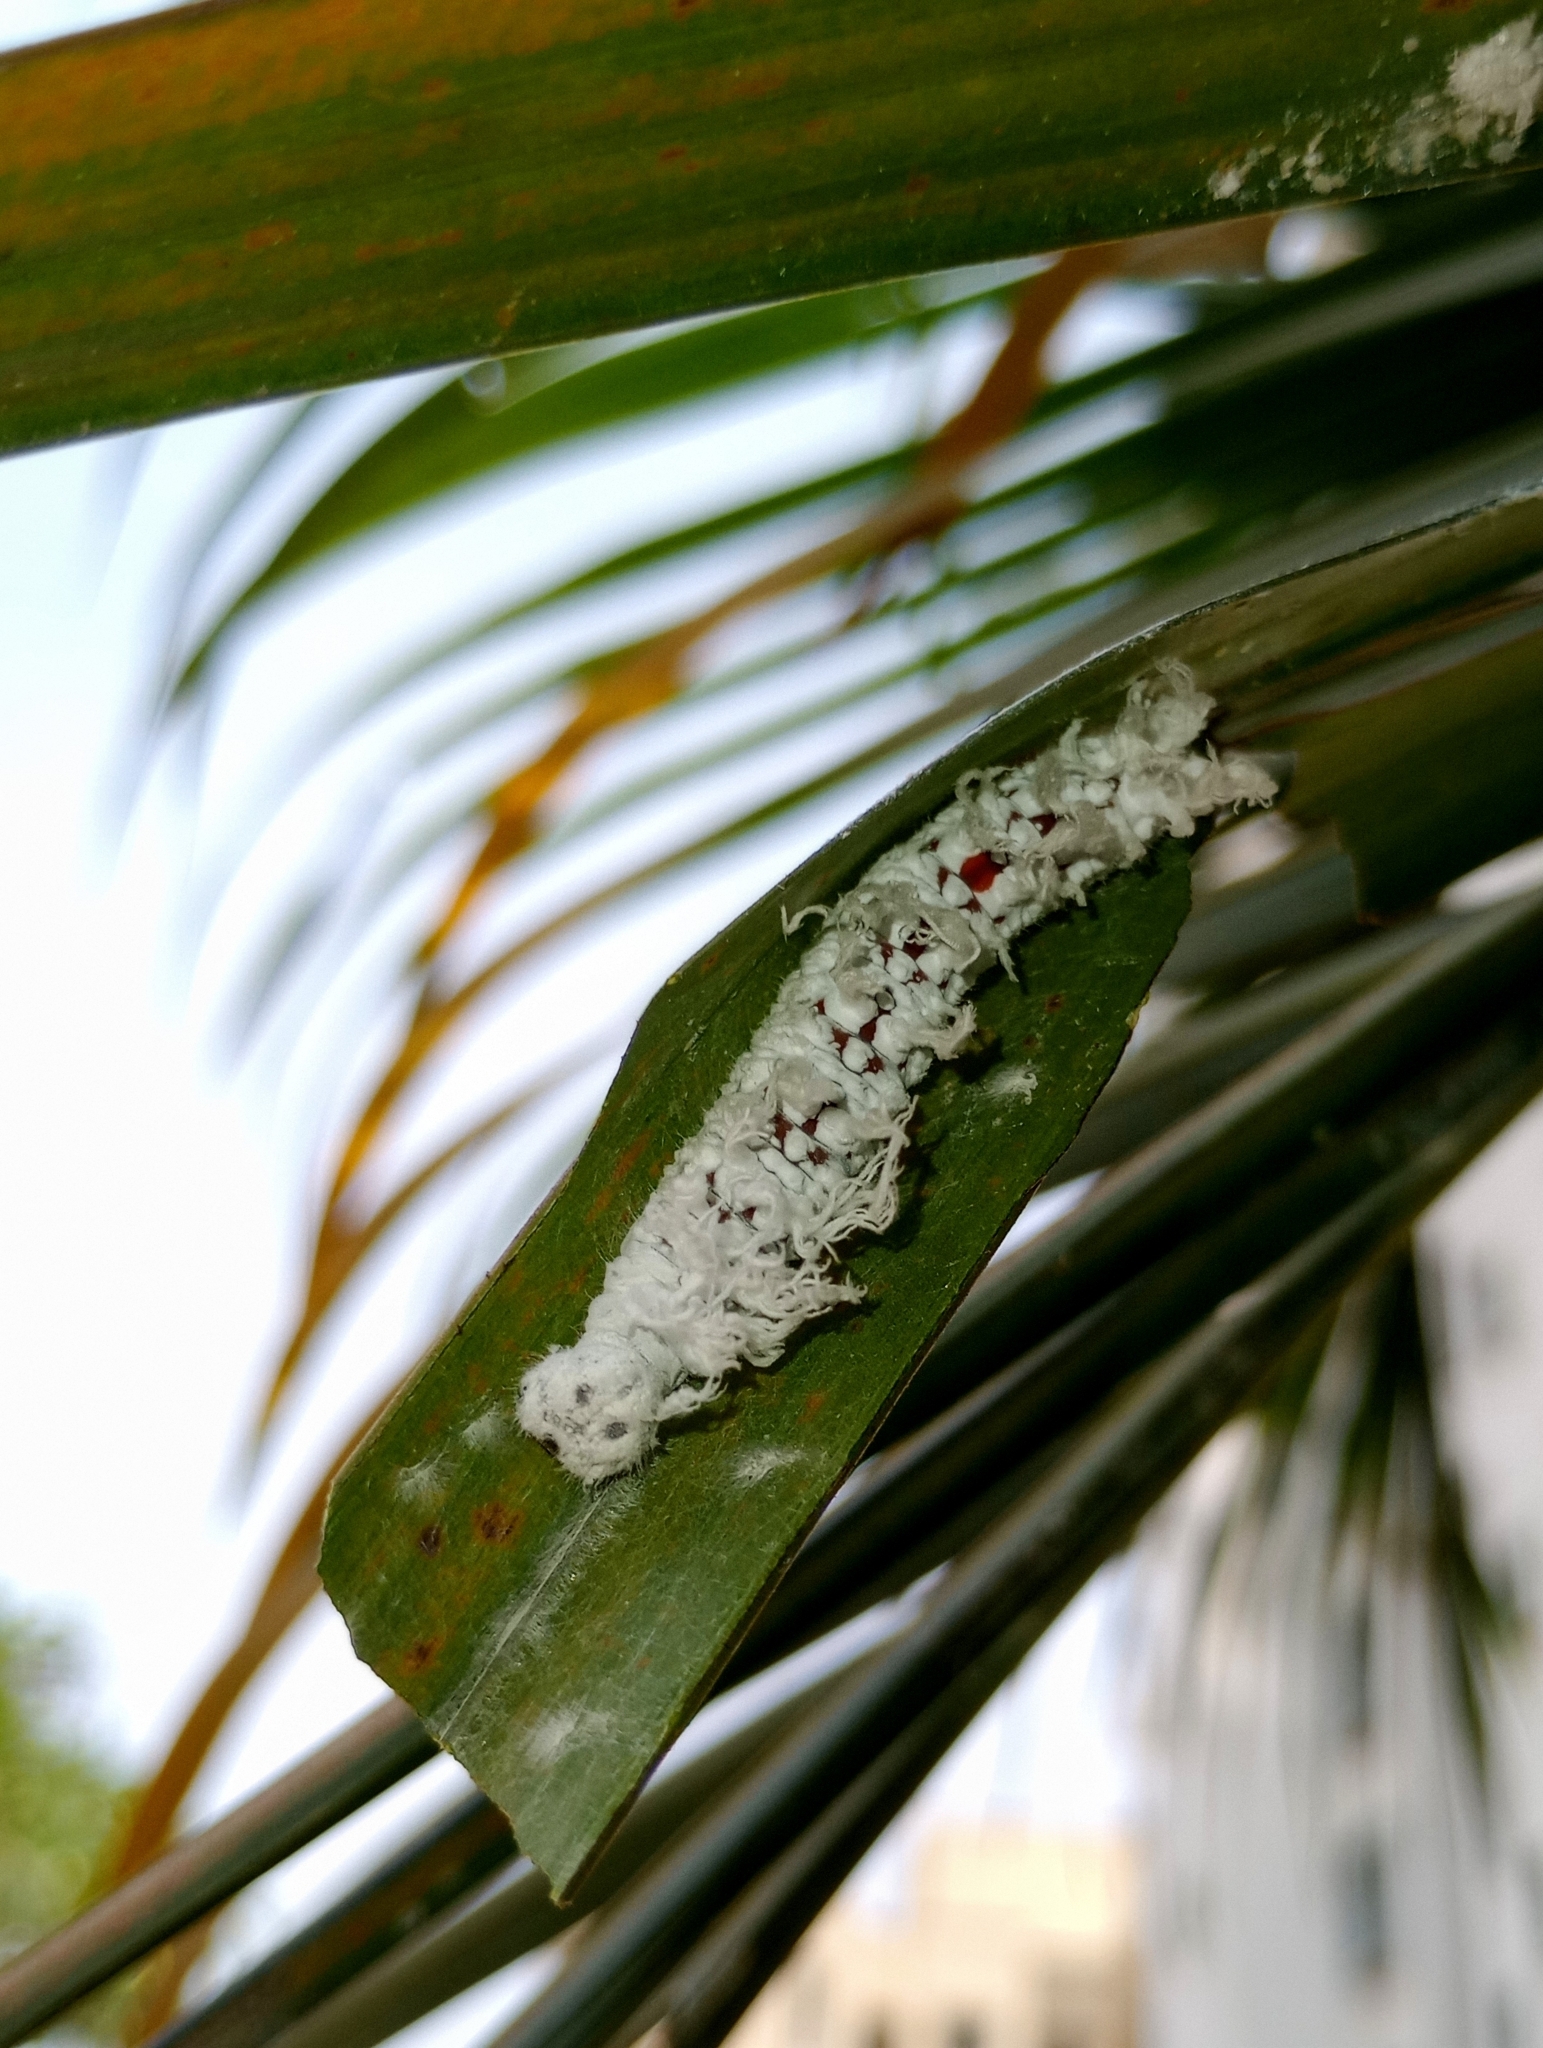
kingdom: Animalia
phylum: Arthropoda
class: Insecta
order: Lepidoptera
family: Hesperiidae
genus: Gangara
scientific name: Gangara thyrsis
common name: Giant redeye
